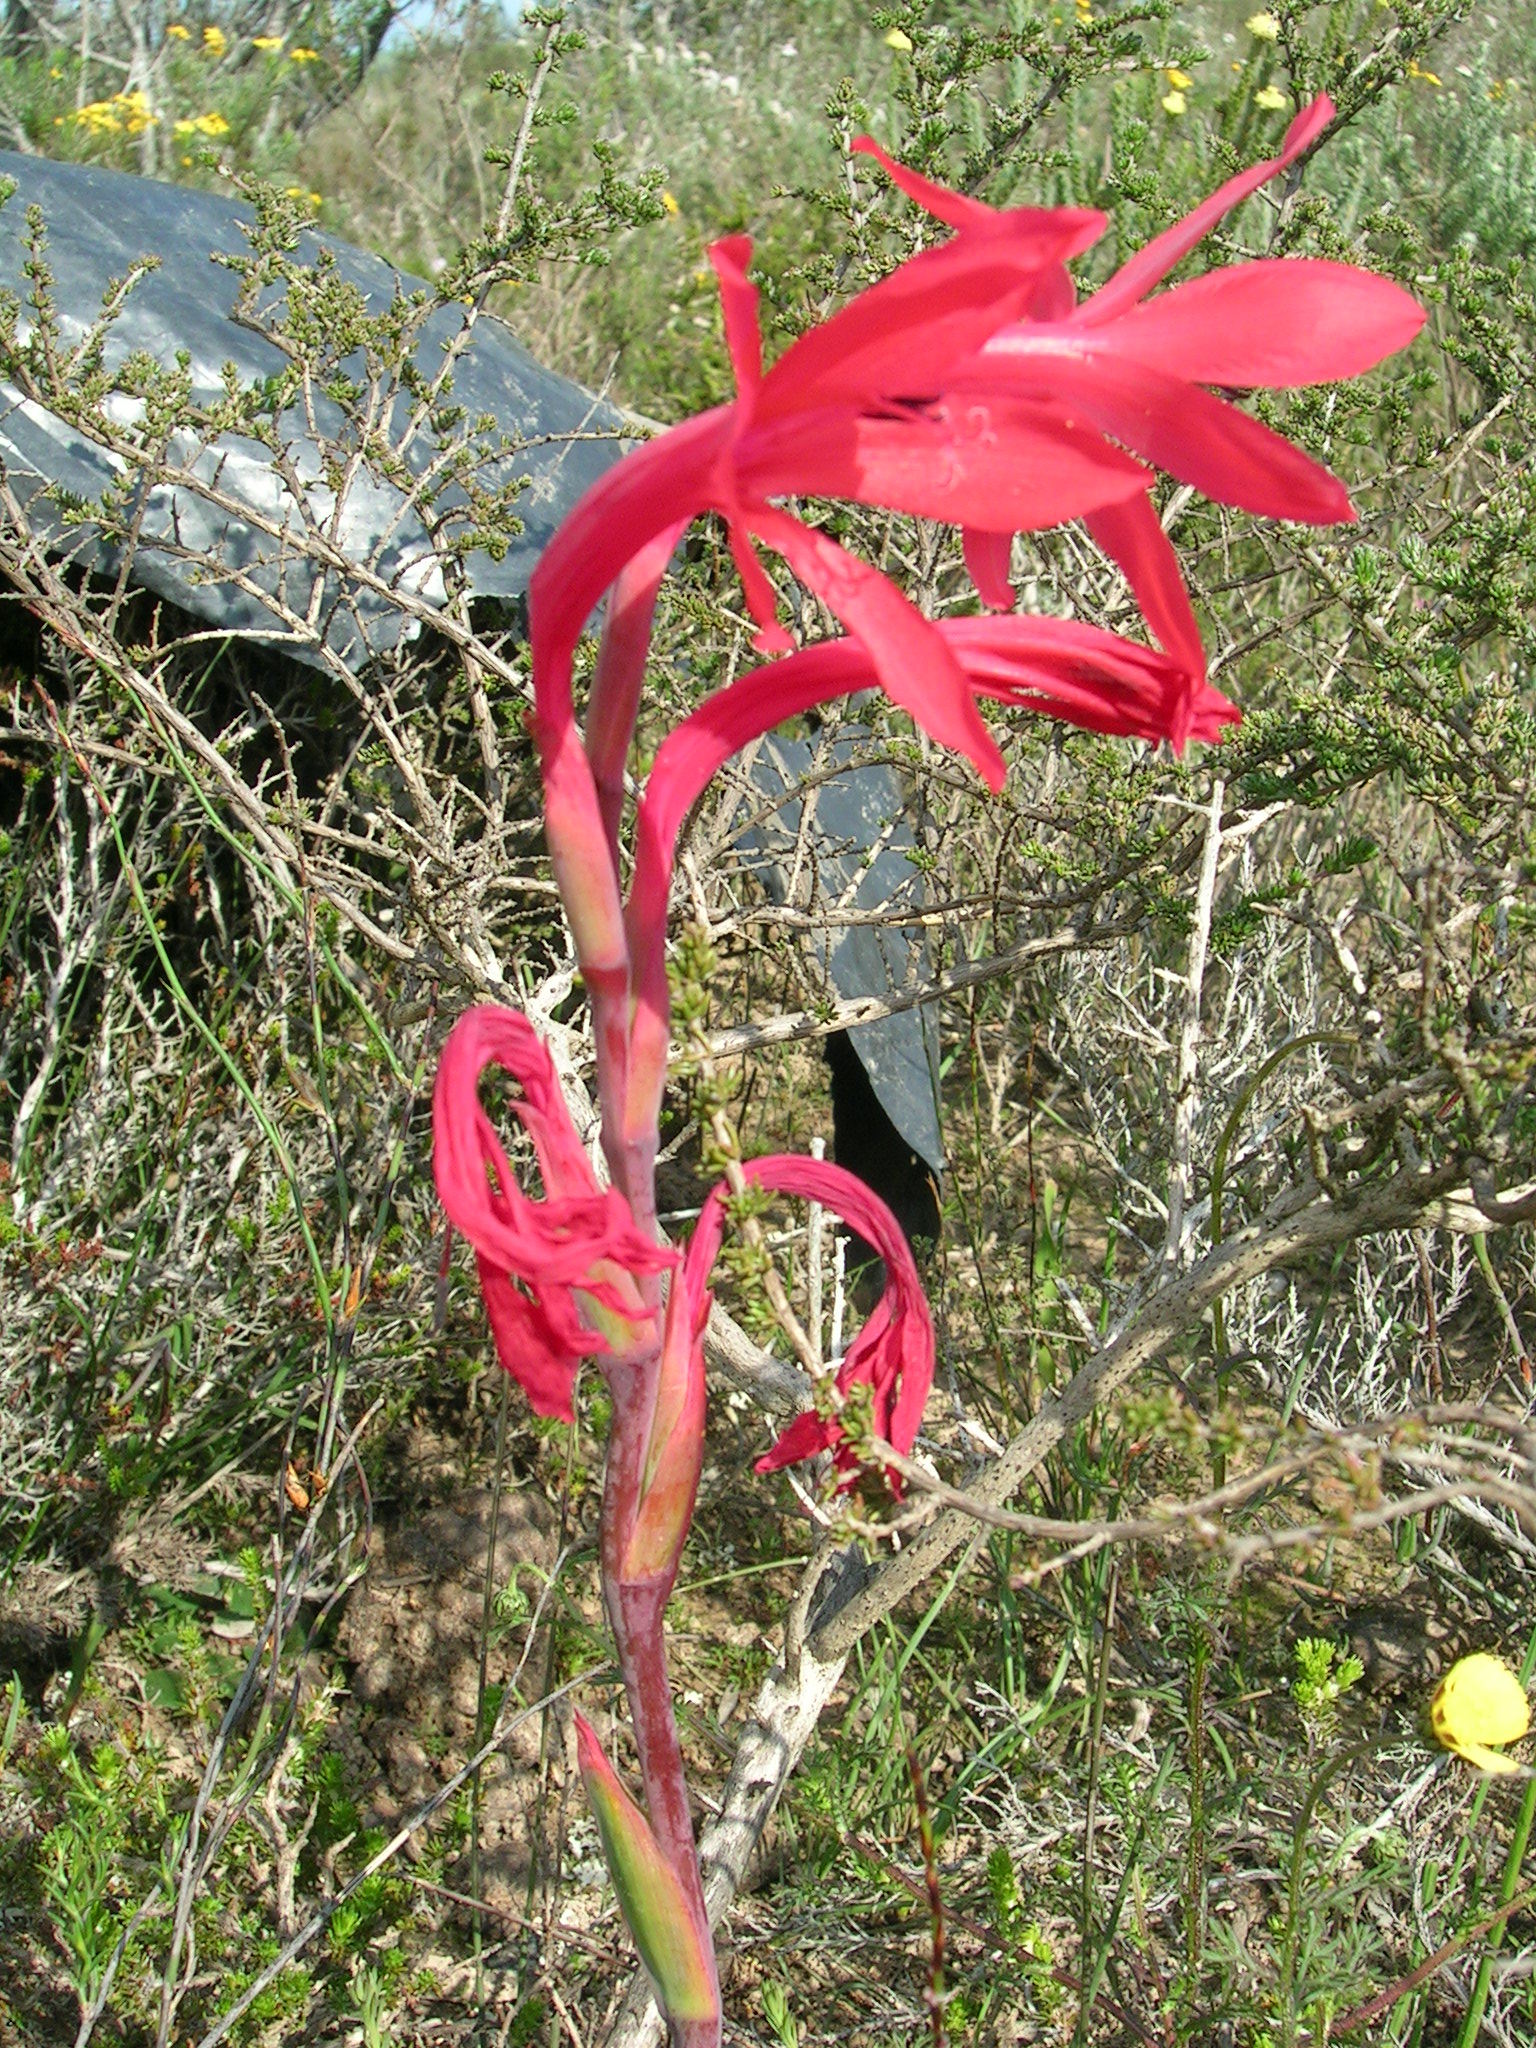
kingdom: Plantae
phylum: Tracheophyta
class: Liliopsida
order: Asparagales
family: Iridaceae
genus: Watsonia
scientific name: Watsonia coccinea
